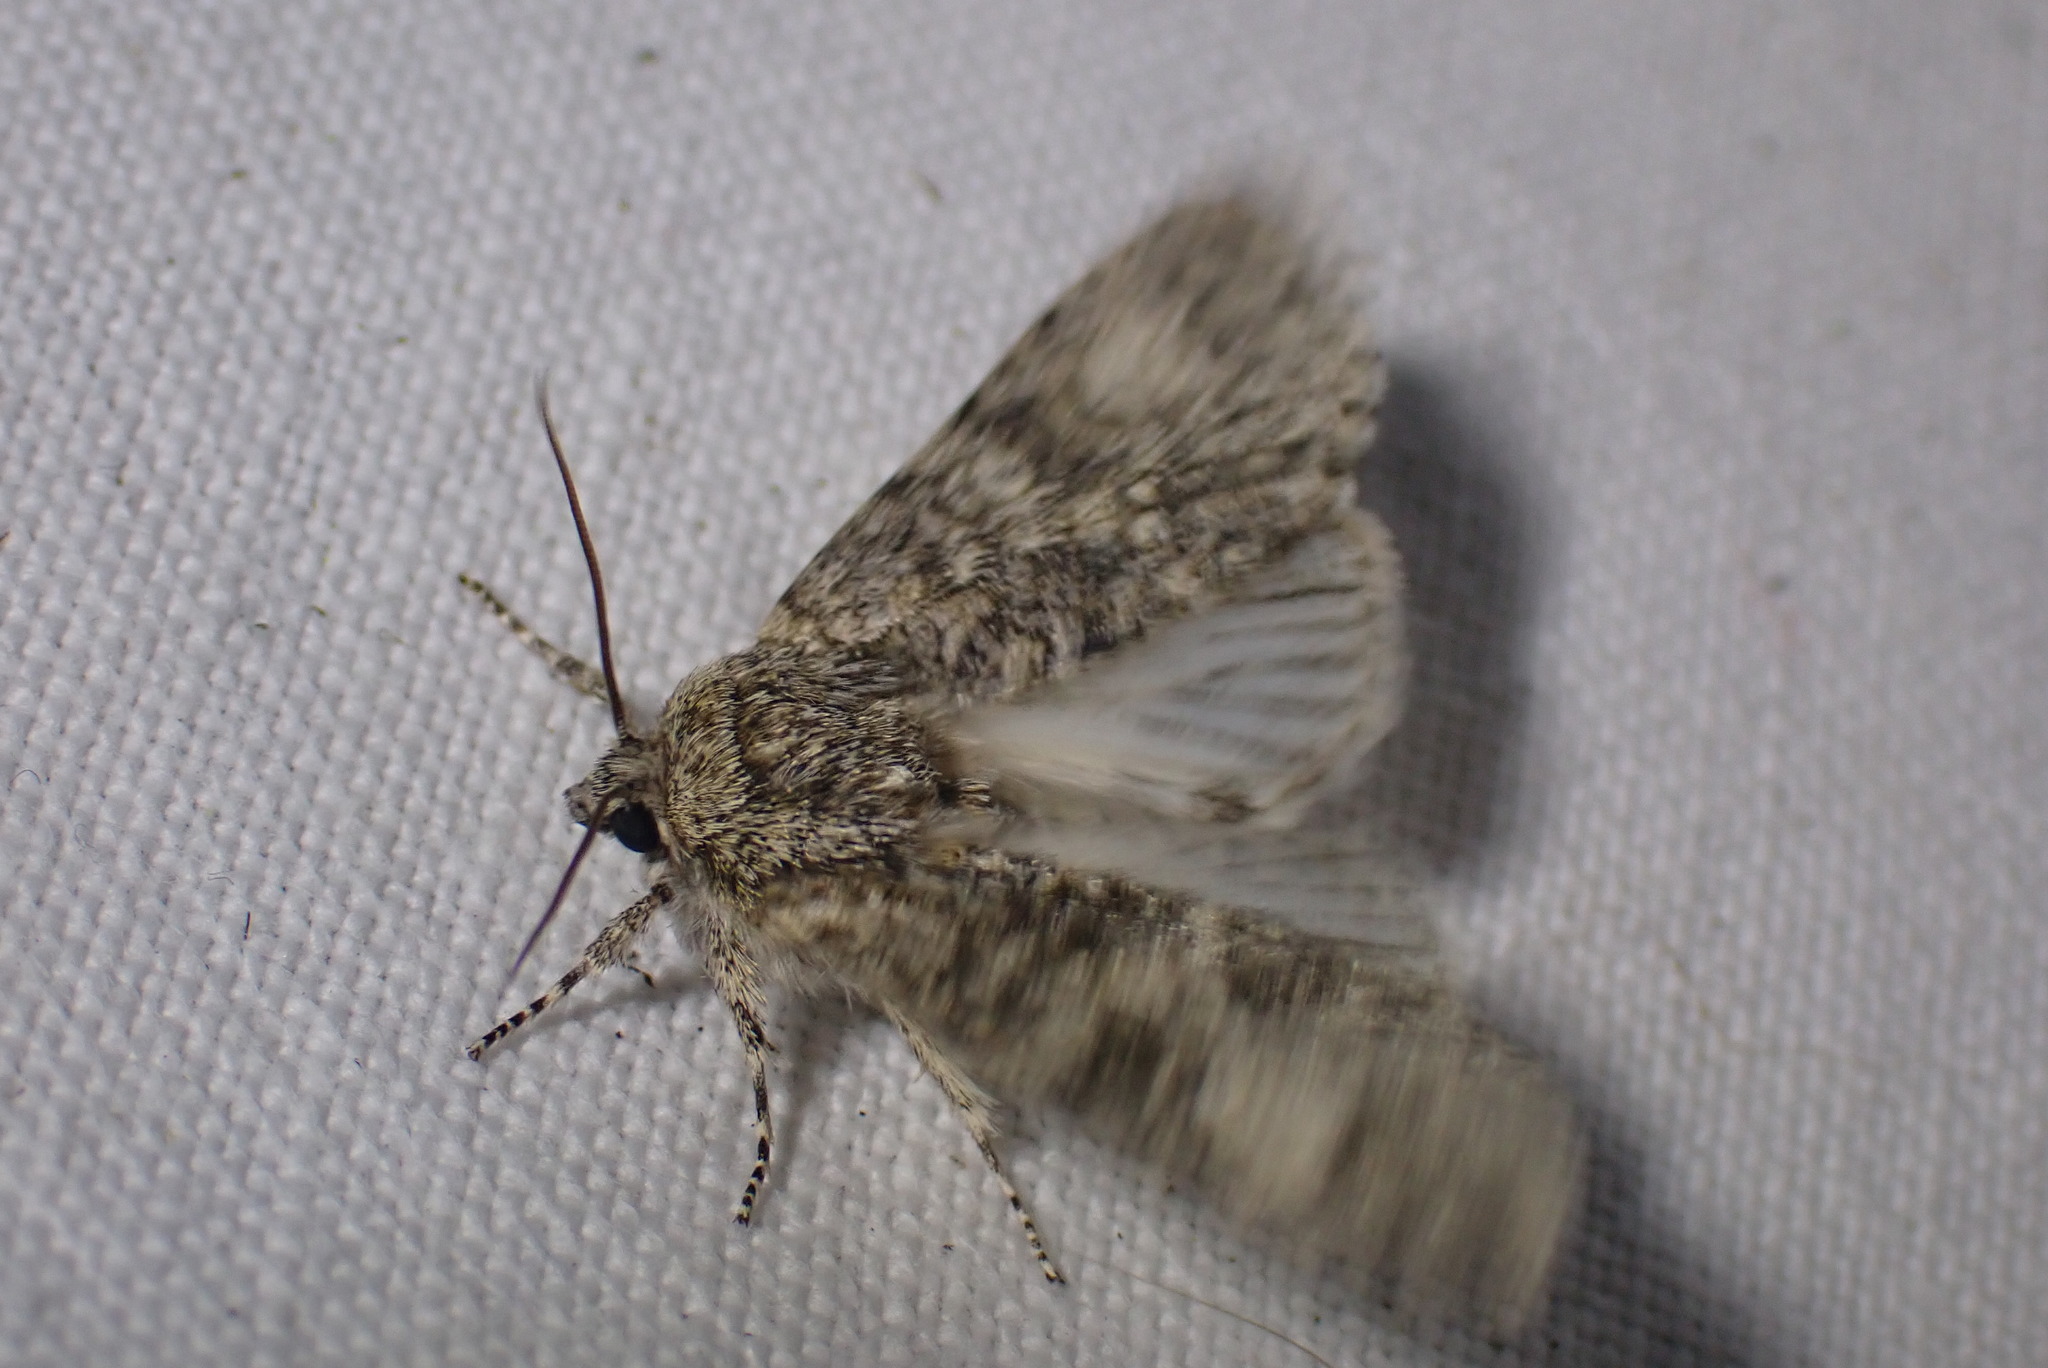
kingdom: Animalia
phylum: Arthropoda
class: Insecta
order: Lepidoptera
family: Noctuidae
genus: Acronicta
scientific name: Acronicta megacephala
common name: Poplar grey
